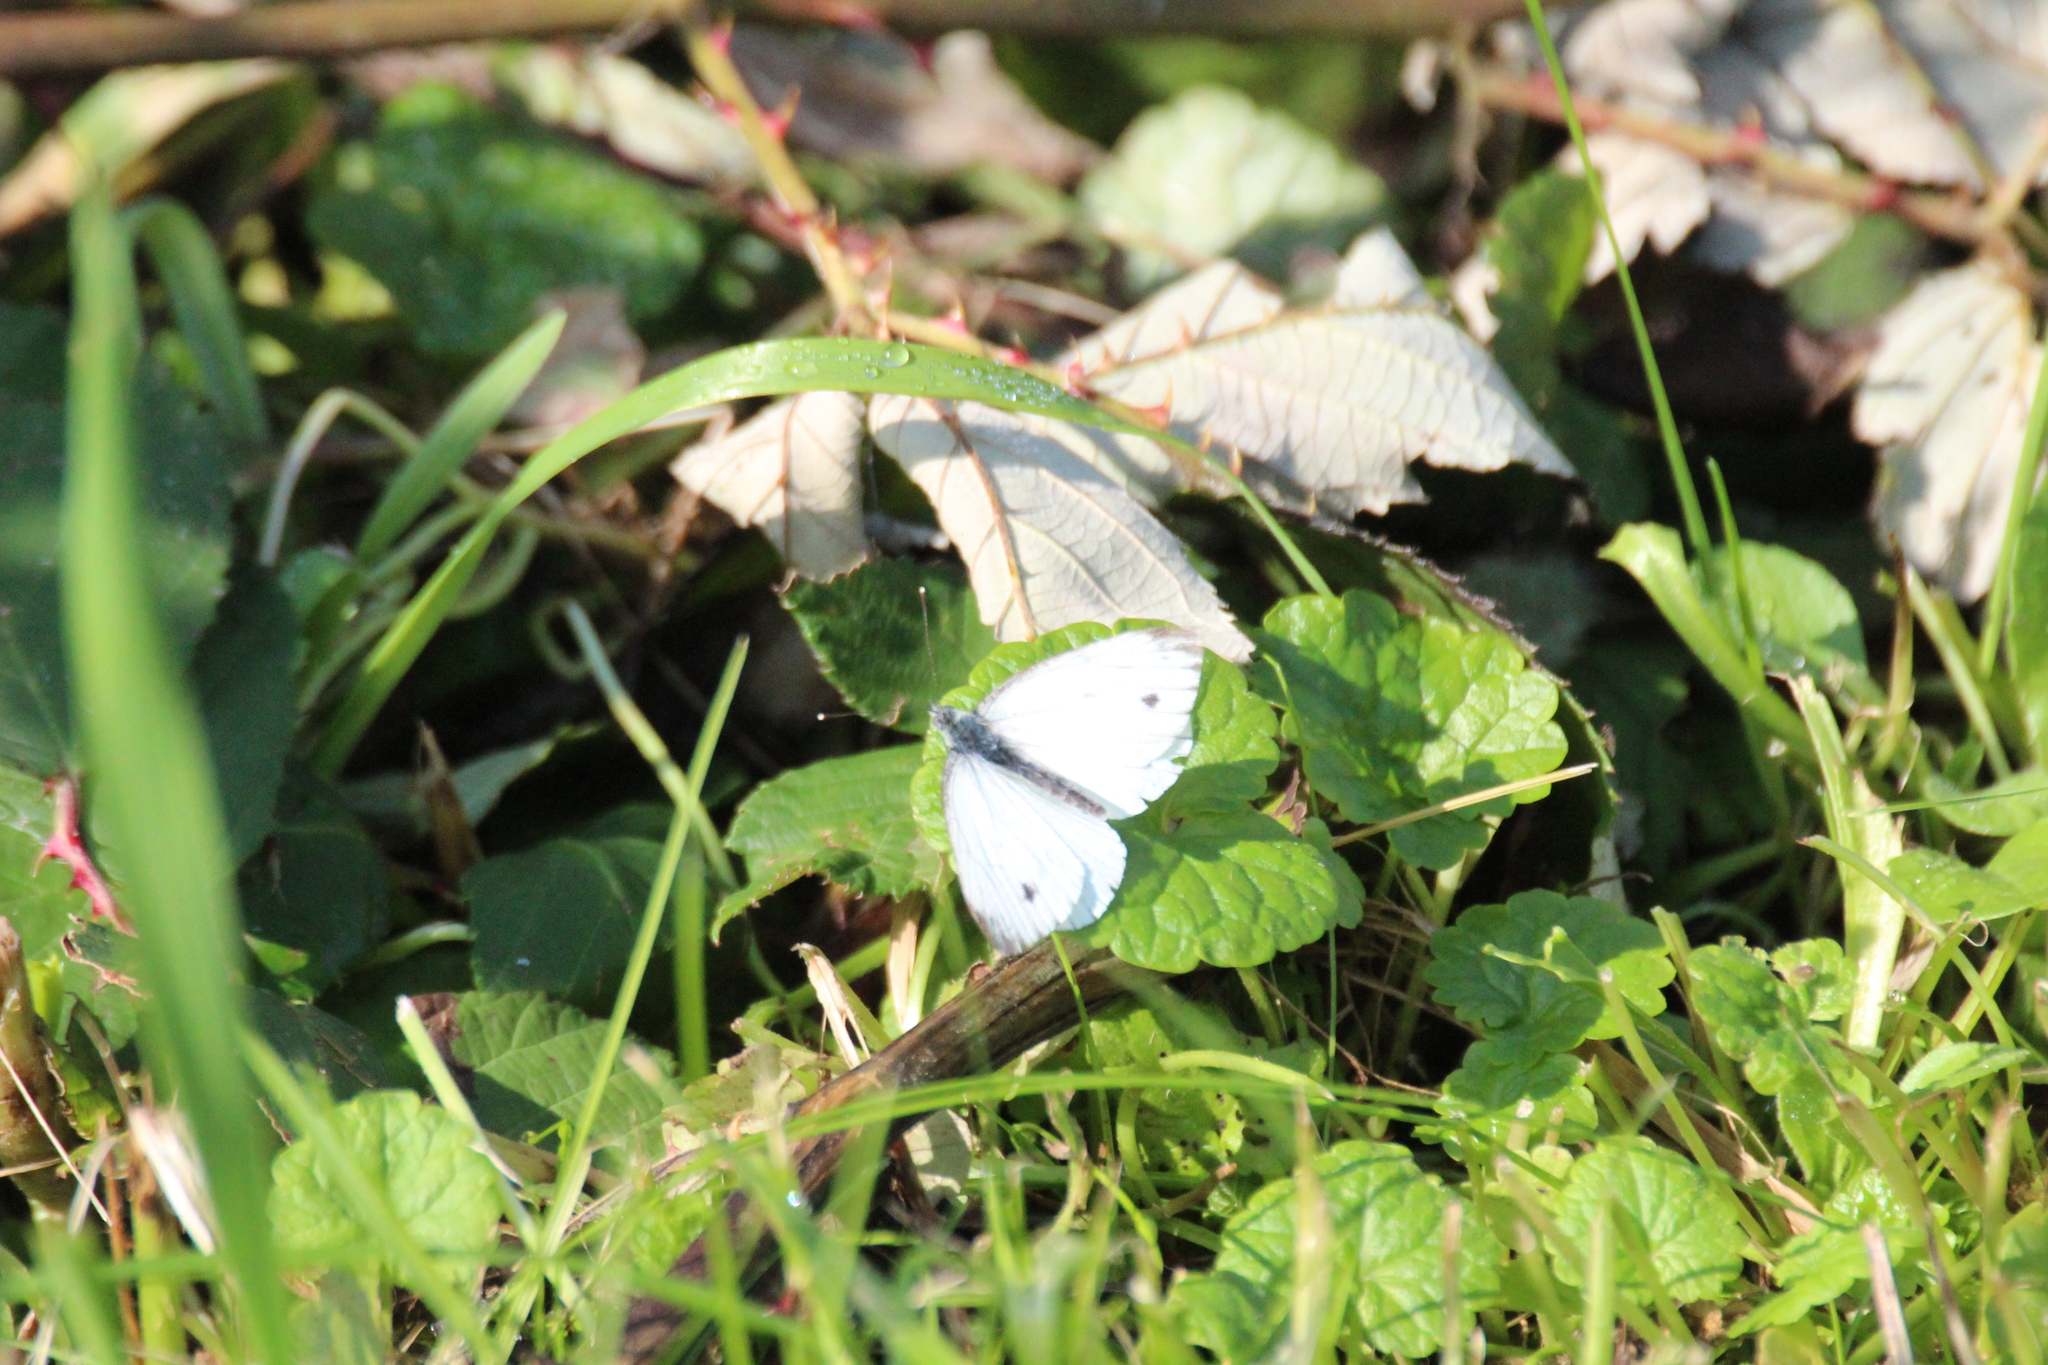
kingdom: Animalia
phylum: Arthropoda
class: Insecta
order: Lepidoptera
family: Pieridae
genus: Pieris
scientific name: Pieris napi
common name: Green-veined white
